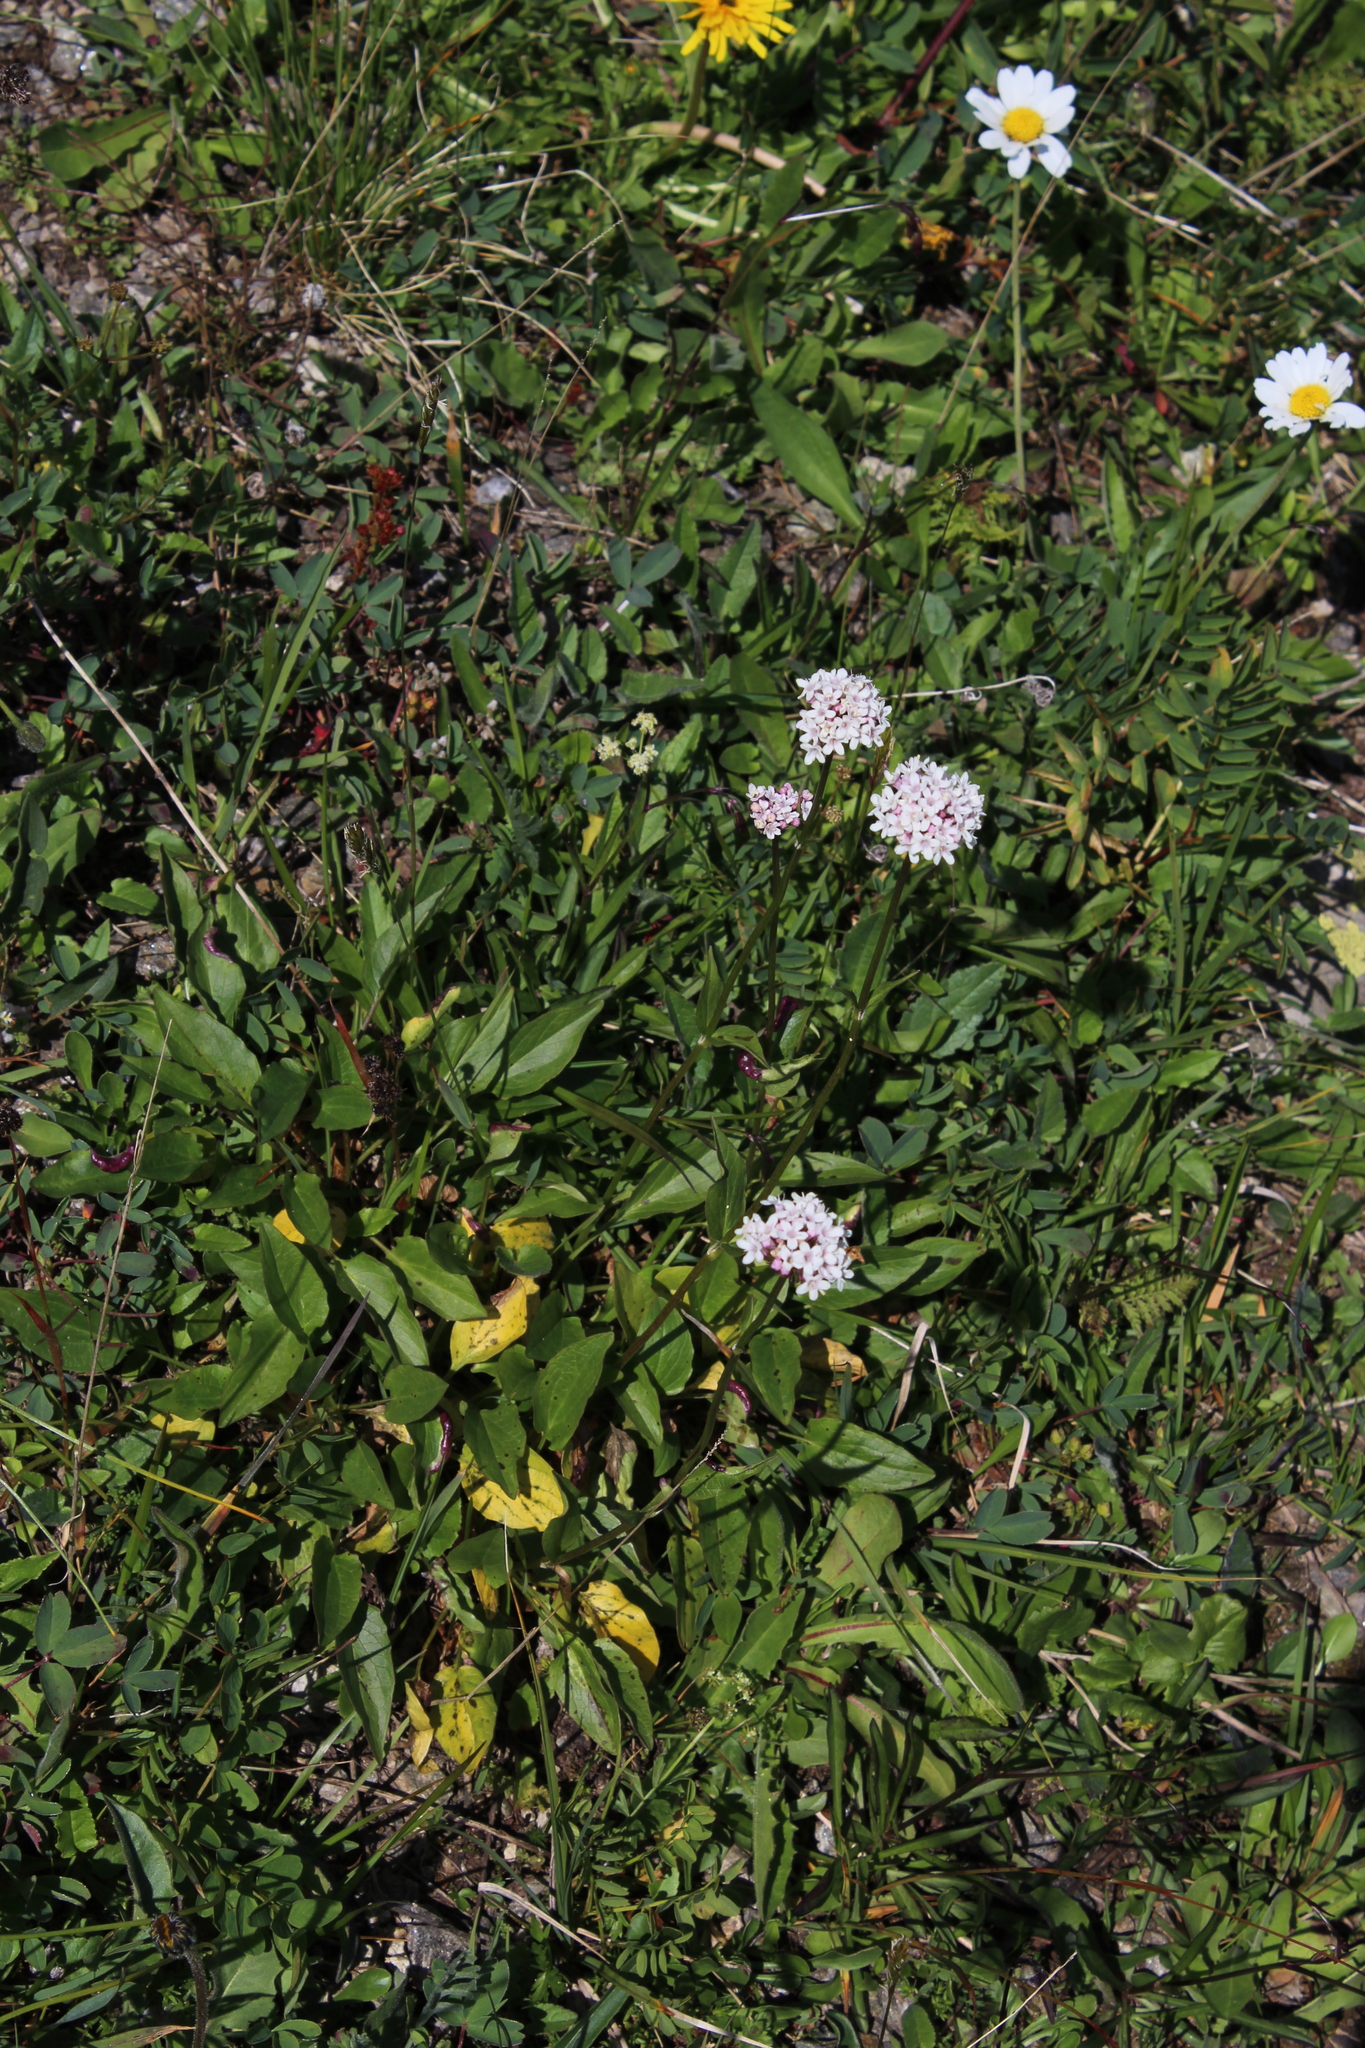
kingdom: Plantae
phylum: Tracheophyta
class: Magnoliopsida
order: Dipsacales
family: Caprifoliaceae
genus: Valeriana
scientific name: Valeriana alpestris
